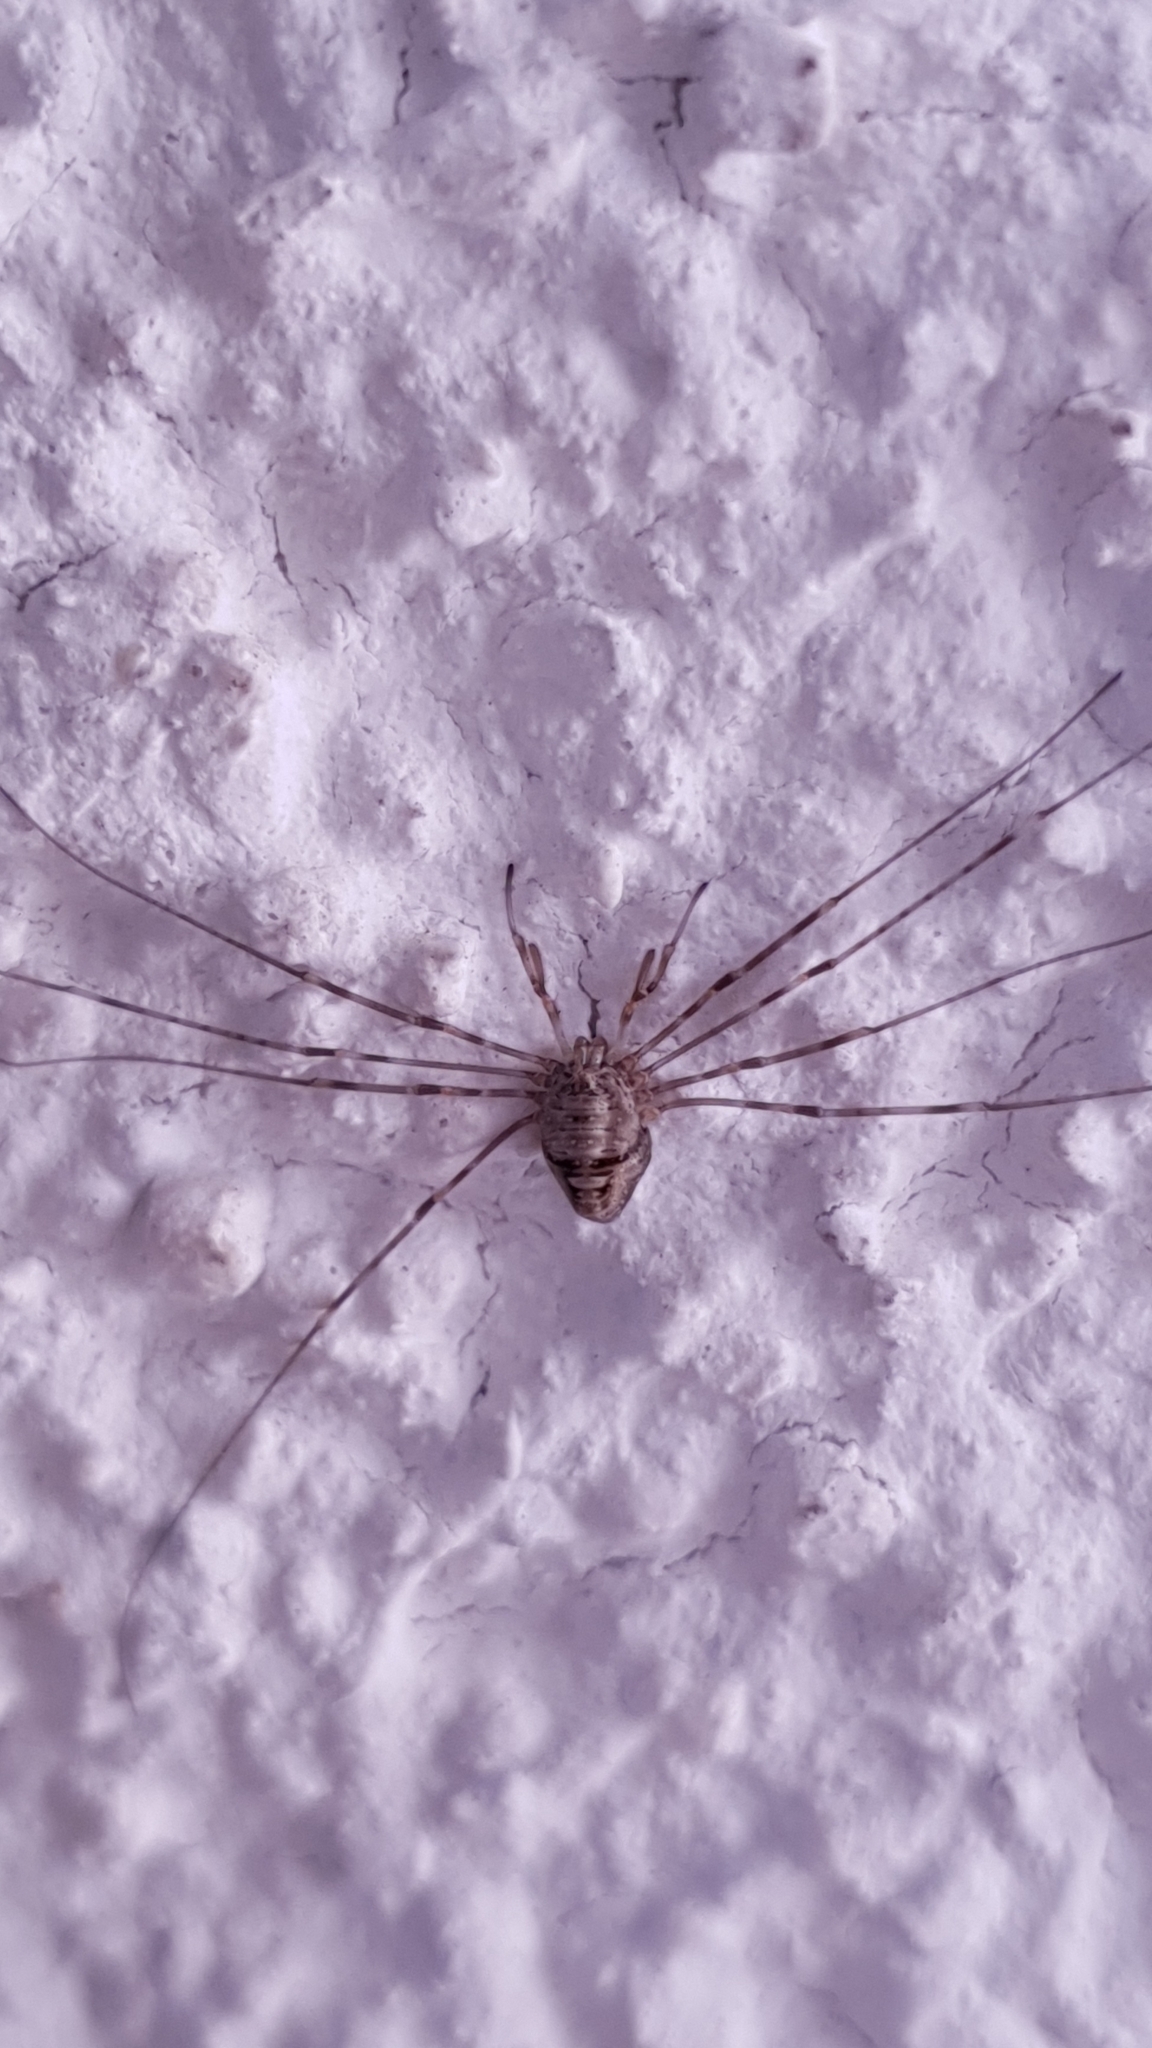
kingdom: Animalia
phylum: Arthropoda
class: Arachnida
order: Opiliones
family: Phalangiidae
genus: Dicranopalpus
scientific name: Dicranopalpus ramosus
